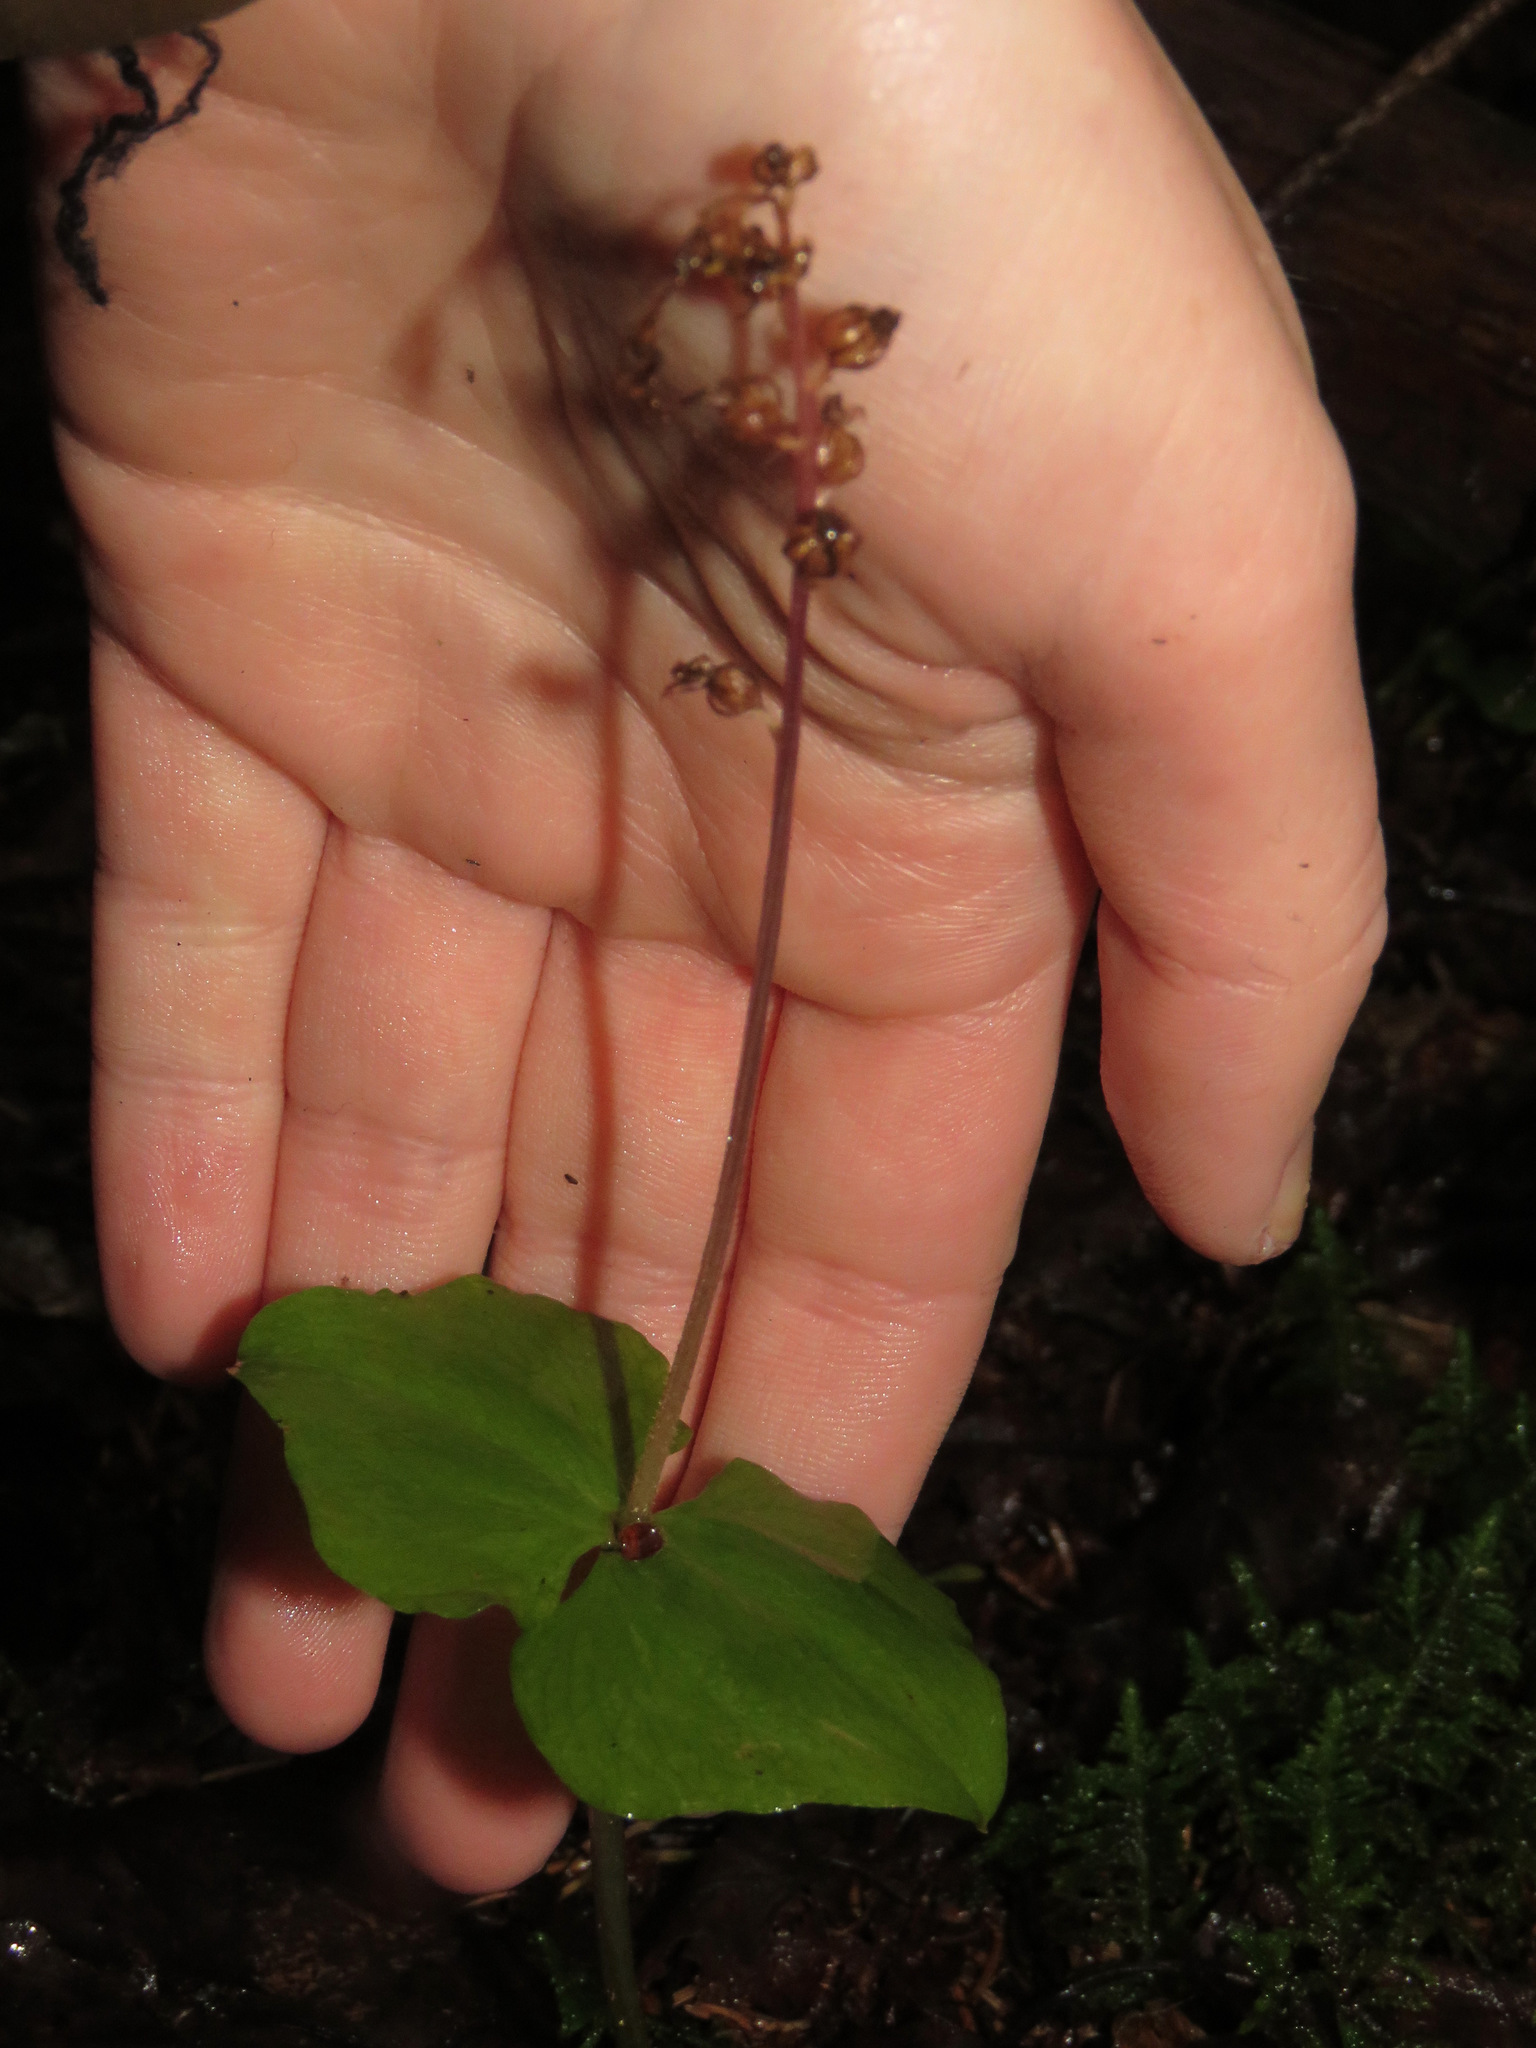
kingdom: Plantae
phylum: Tracheophyta
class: Liliopsida
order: Asparagales
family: Orchidaceae
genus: Neottia
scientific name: Neottia cordata
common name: Lesser twayblade
